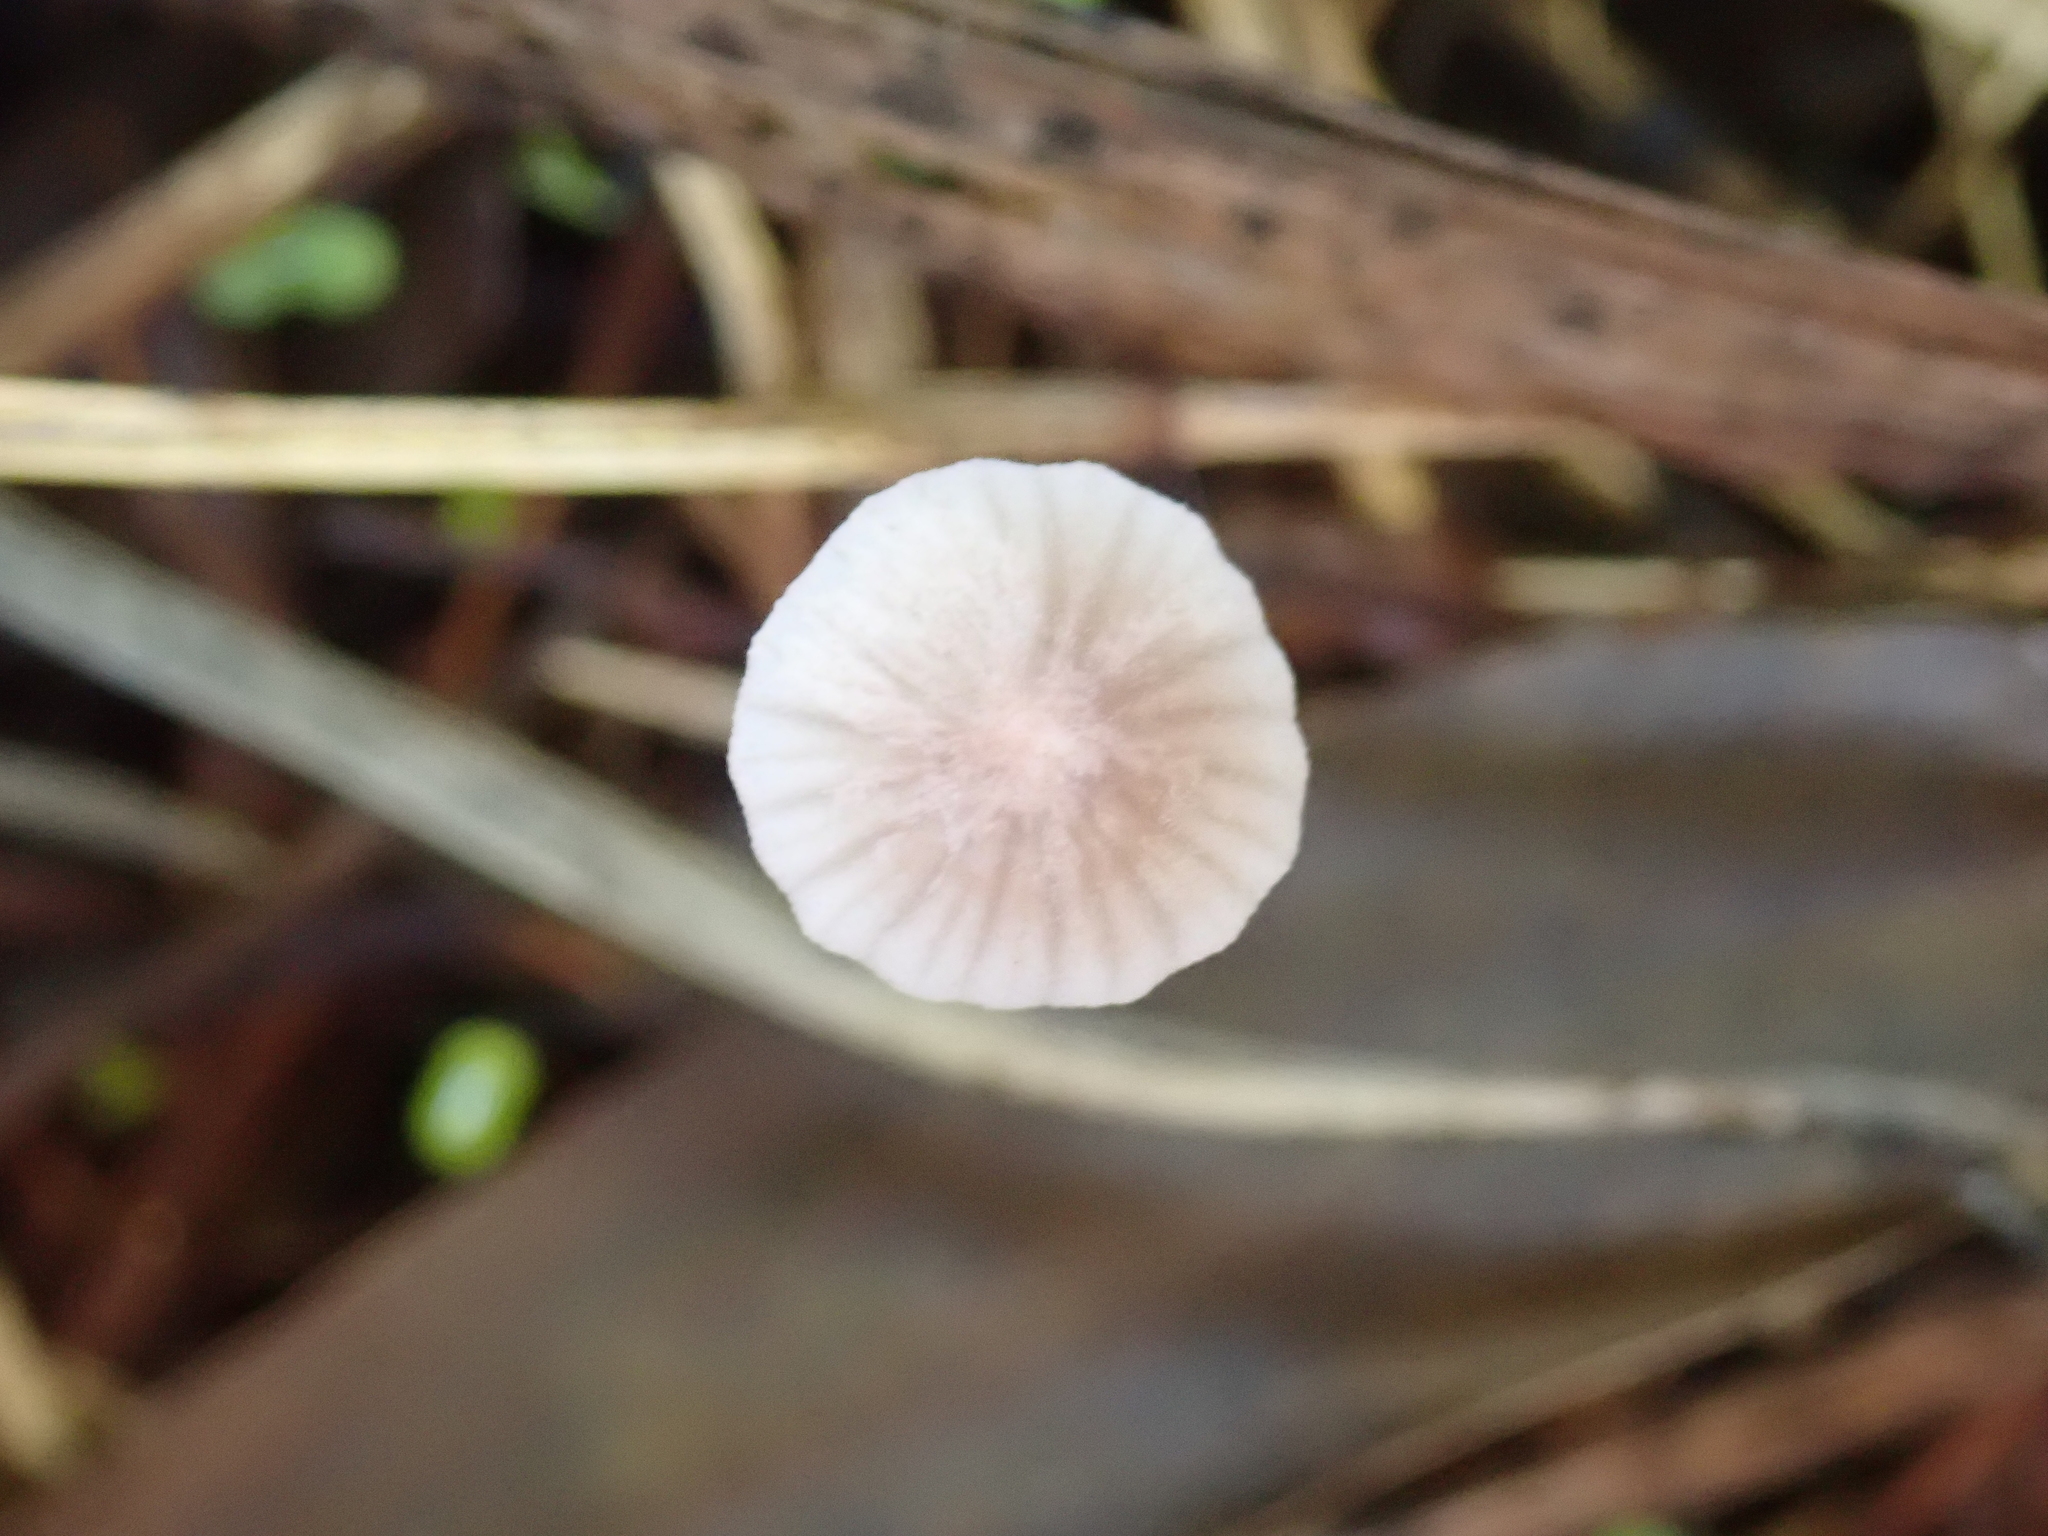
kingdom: Fungi
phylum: Basidiomycota
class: Agaricomycetes
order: Agaricales
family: Mycenaceae
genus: Mycena
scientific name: Mycena capillaripes
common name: Pinkedge bonnet
